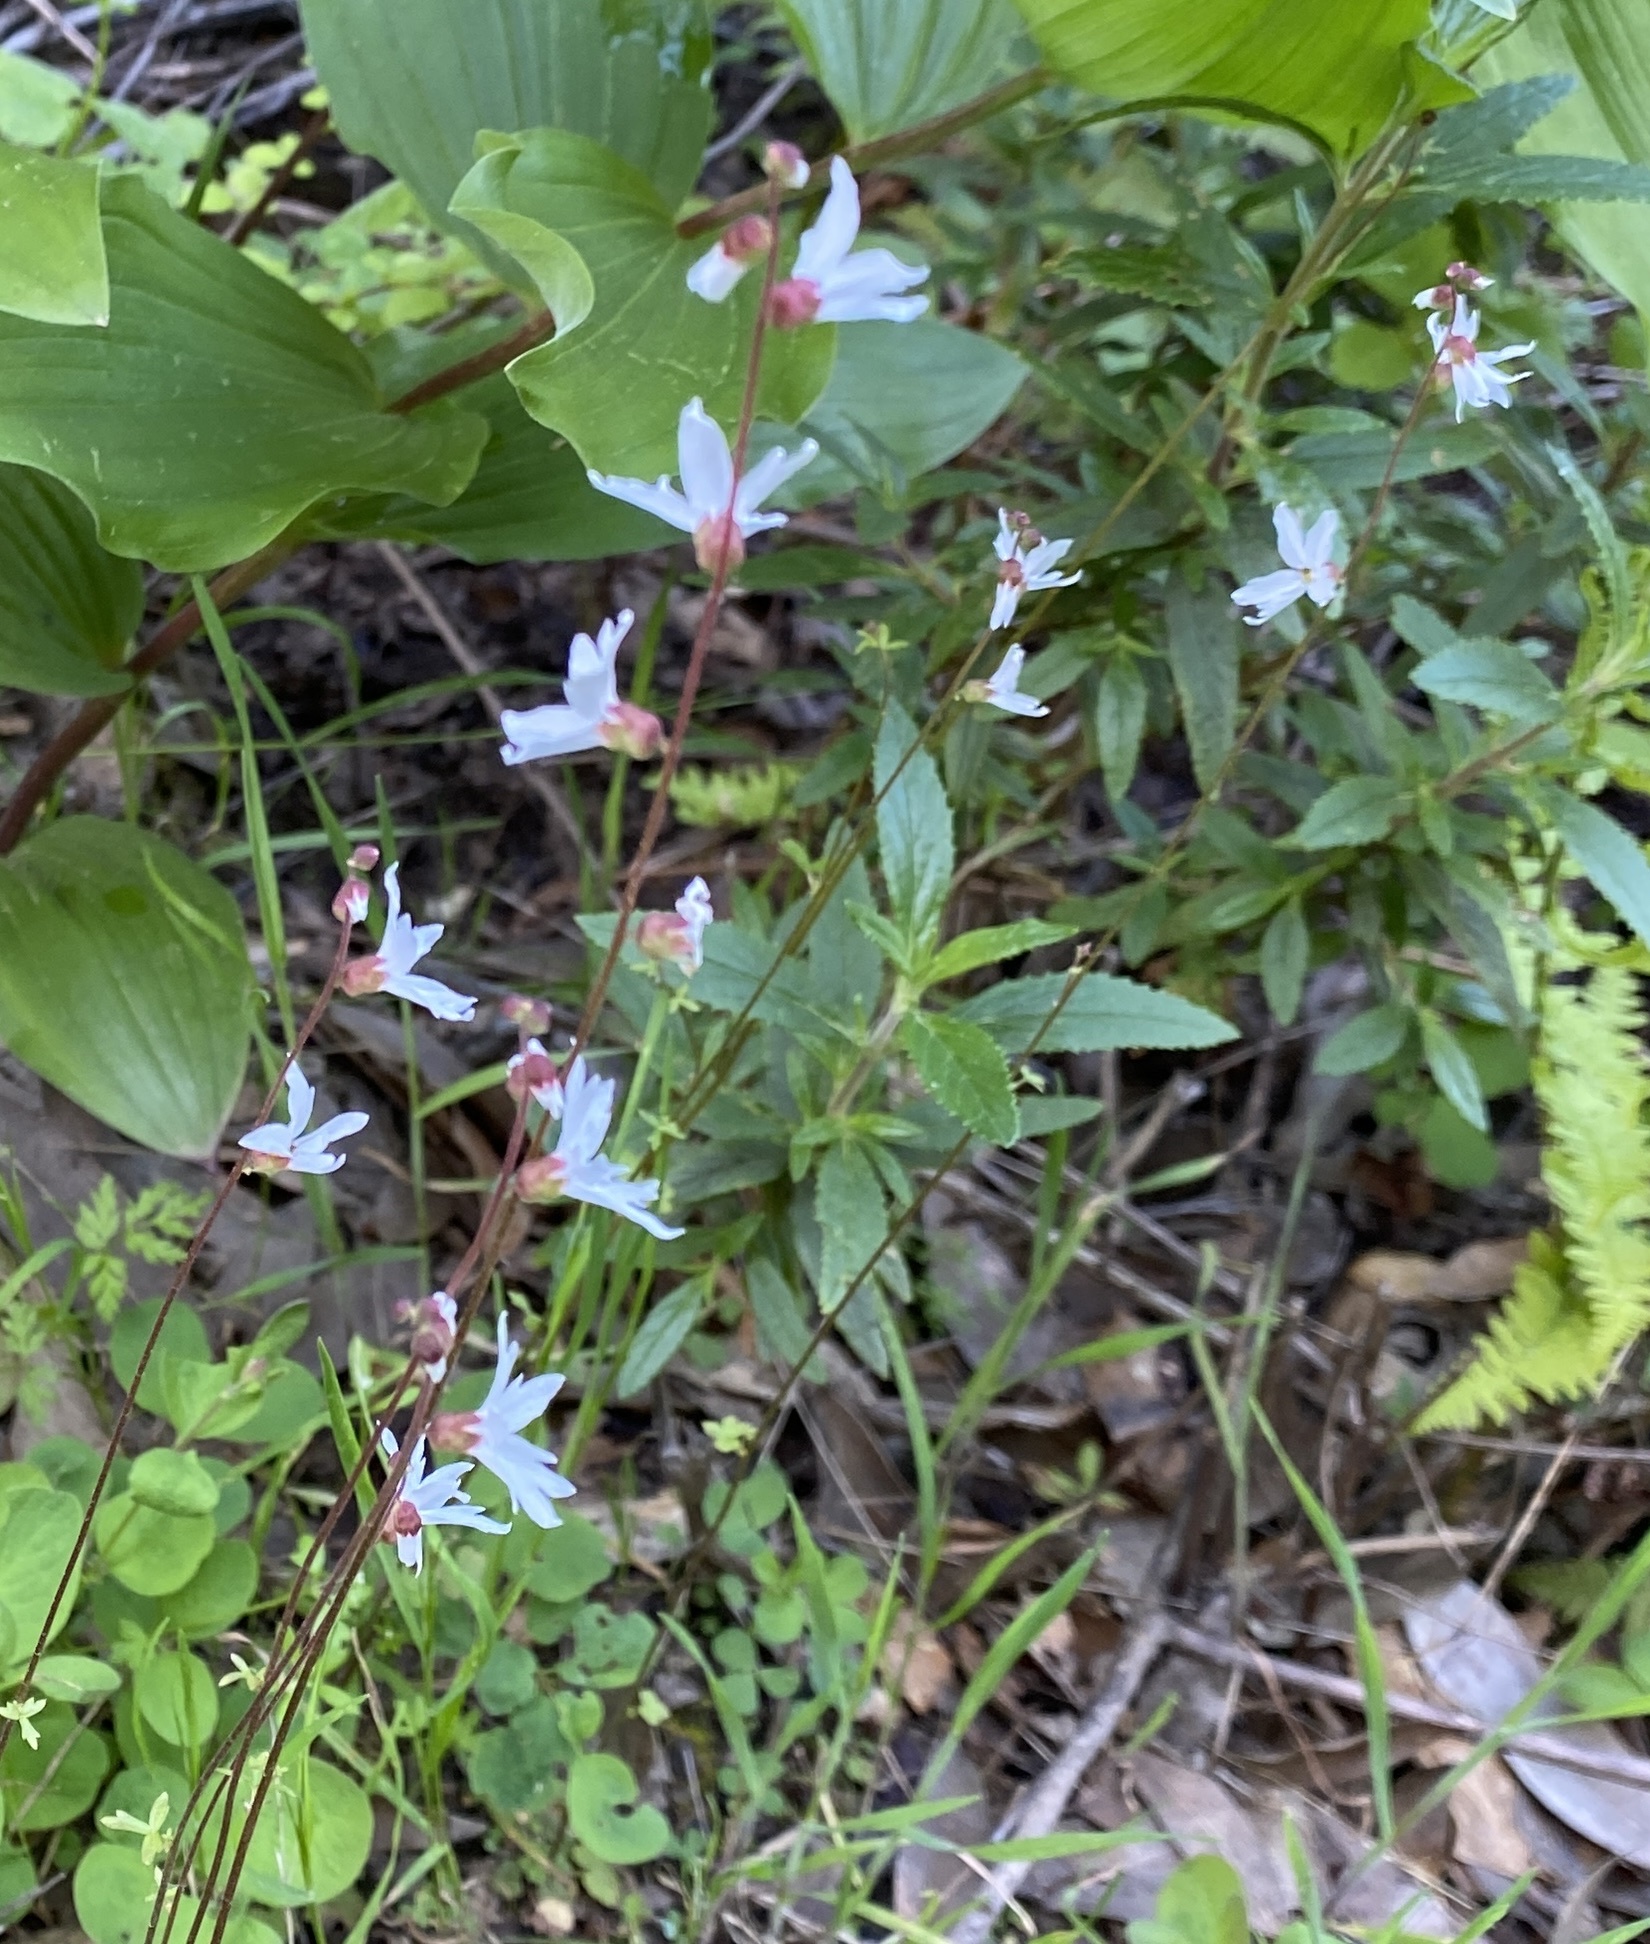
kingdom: Plantae
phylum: Tracheophyta
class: Magnoliopsida
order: Saxifragales
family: Saxifragaceae
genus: Lithophragma
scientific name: Lithophragma heterophyllum
